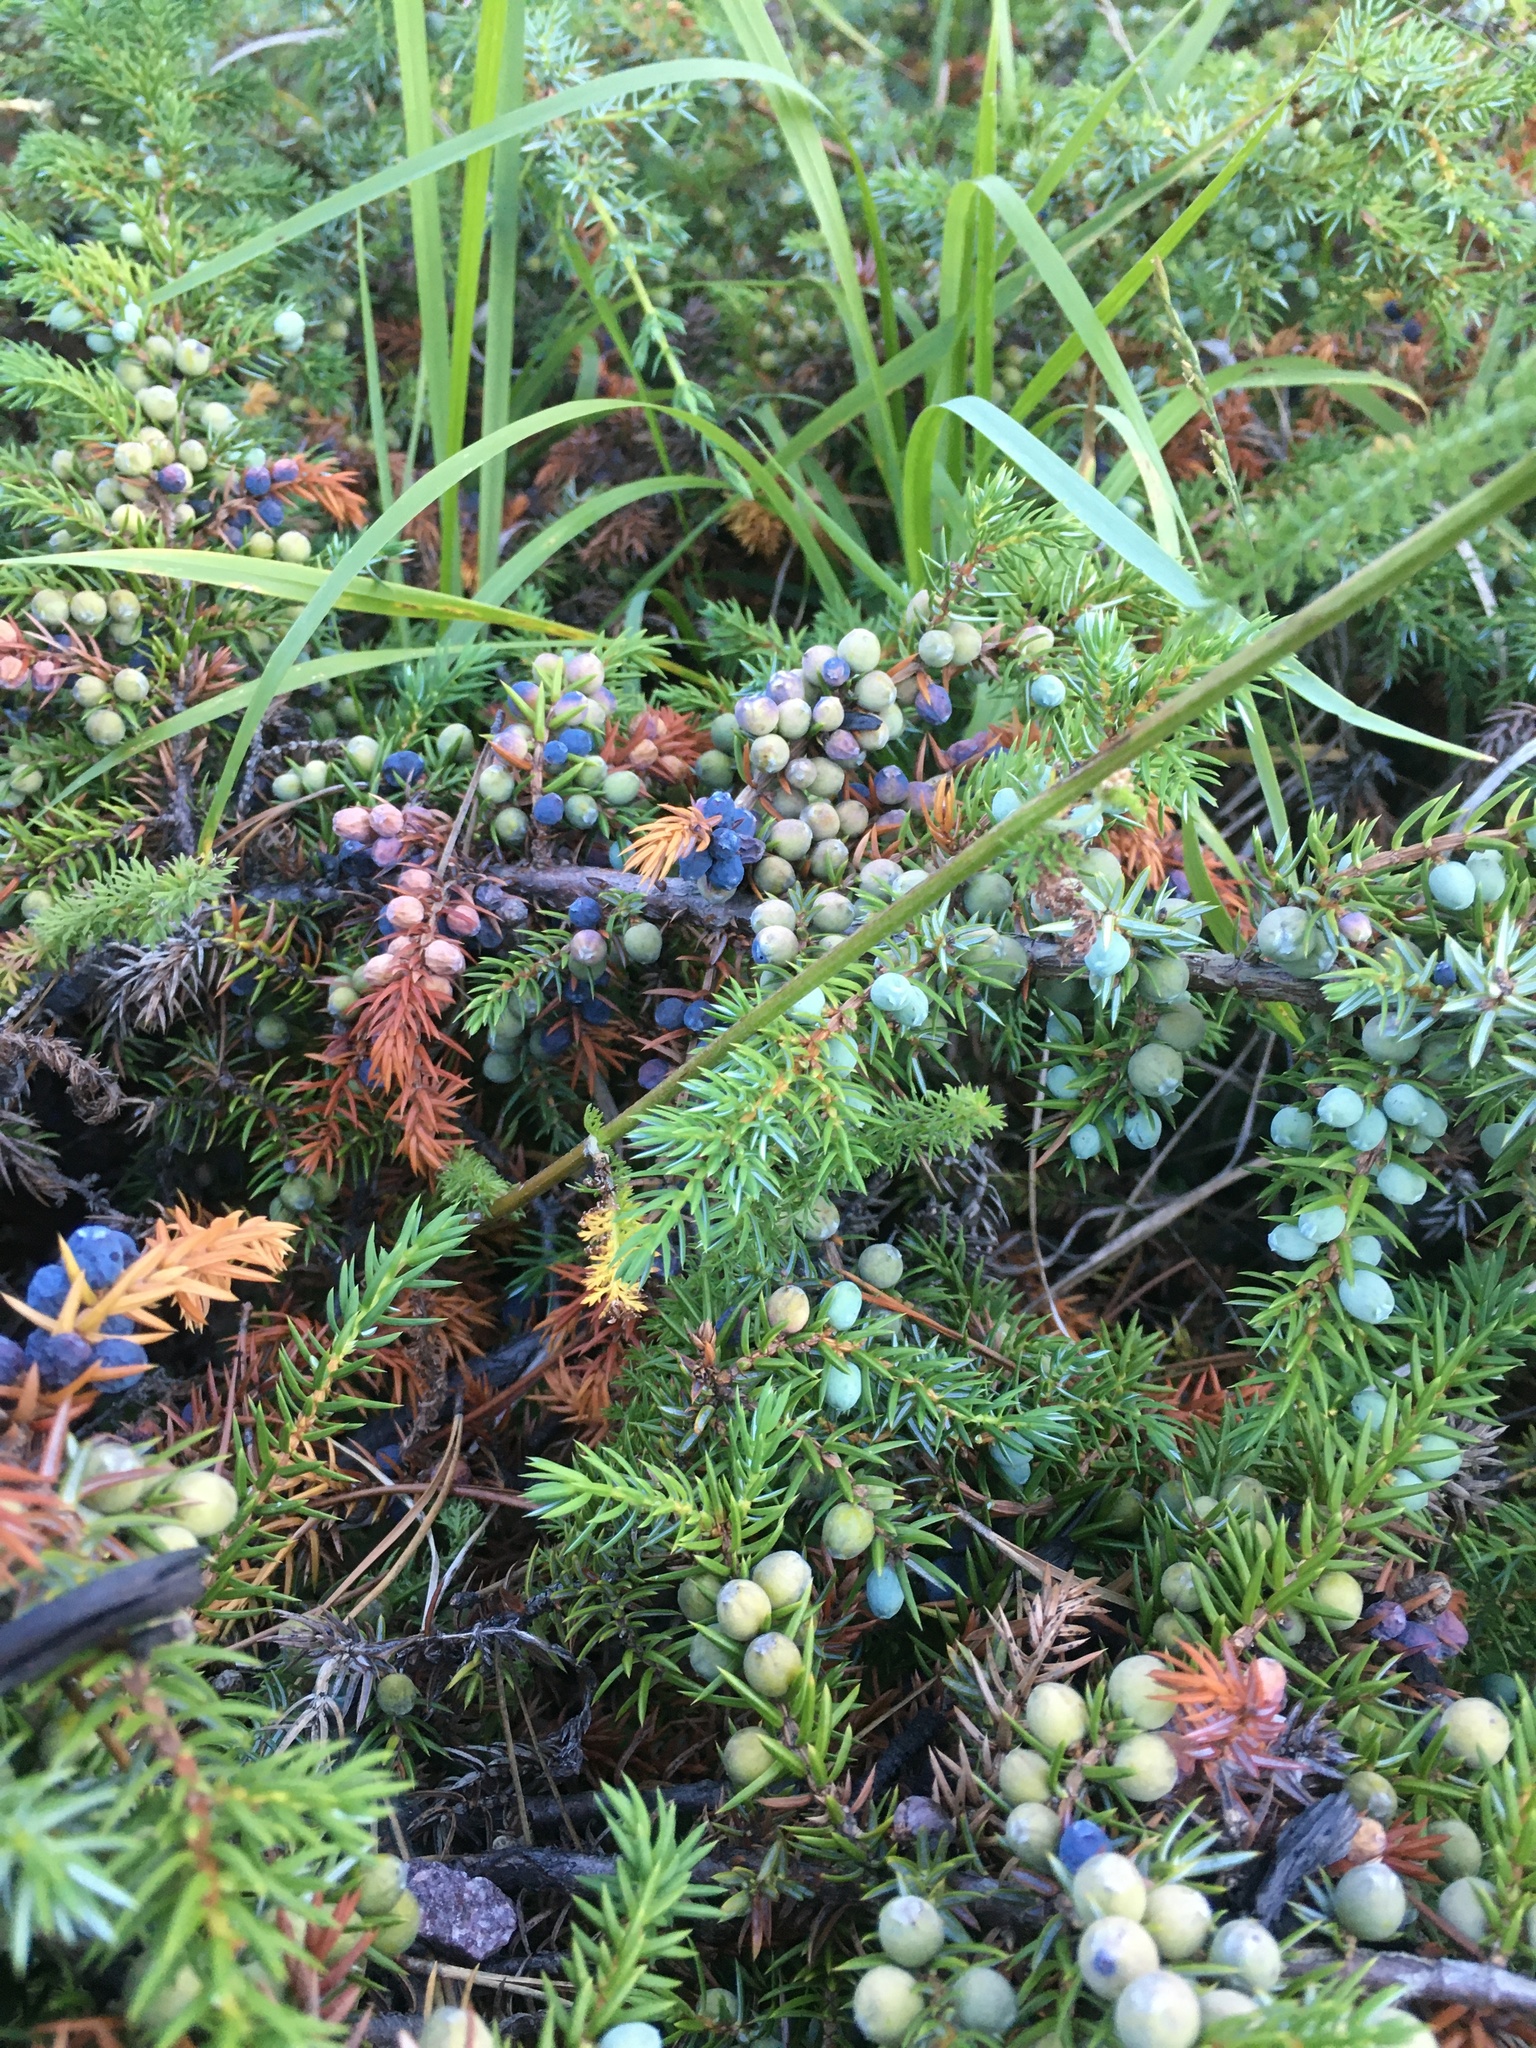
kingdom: Plantae
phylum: Tracheophyta
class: Pinopsida
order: Pinales
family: Cupressaceae
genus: Juniperus
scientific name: Juniperus communis
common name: Common juniper
